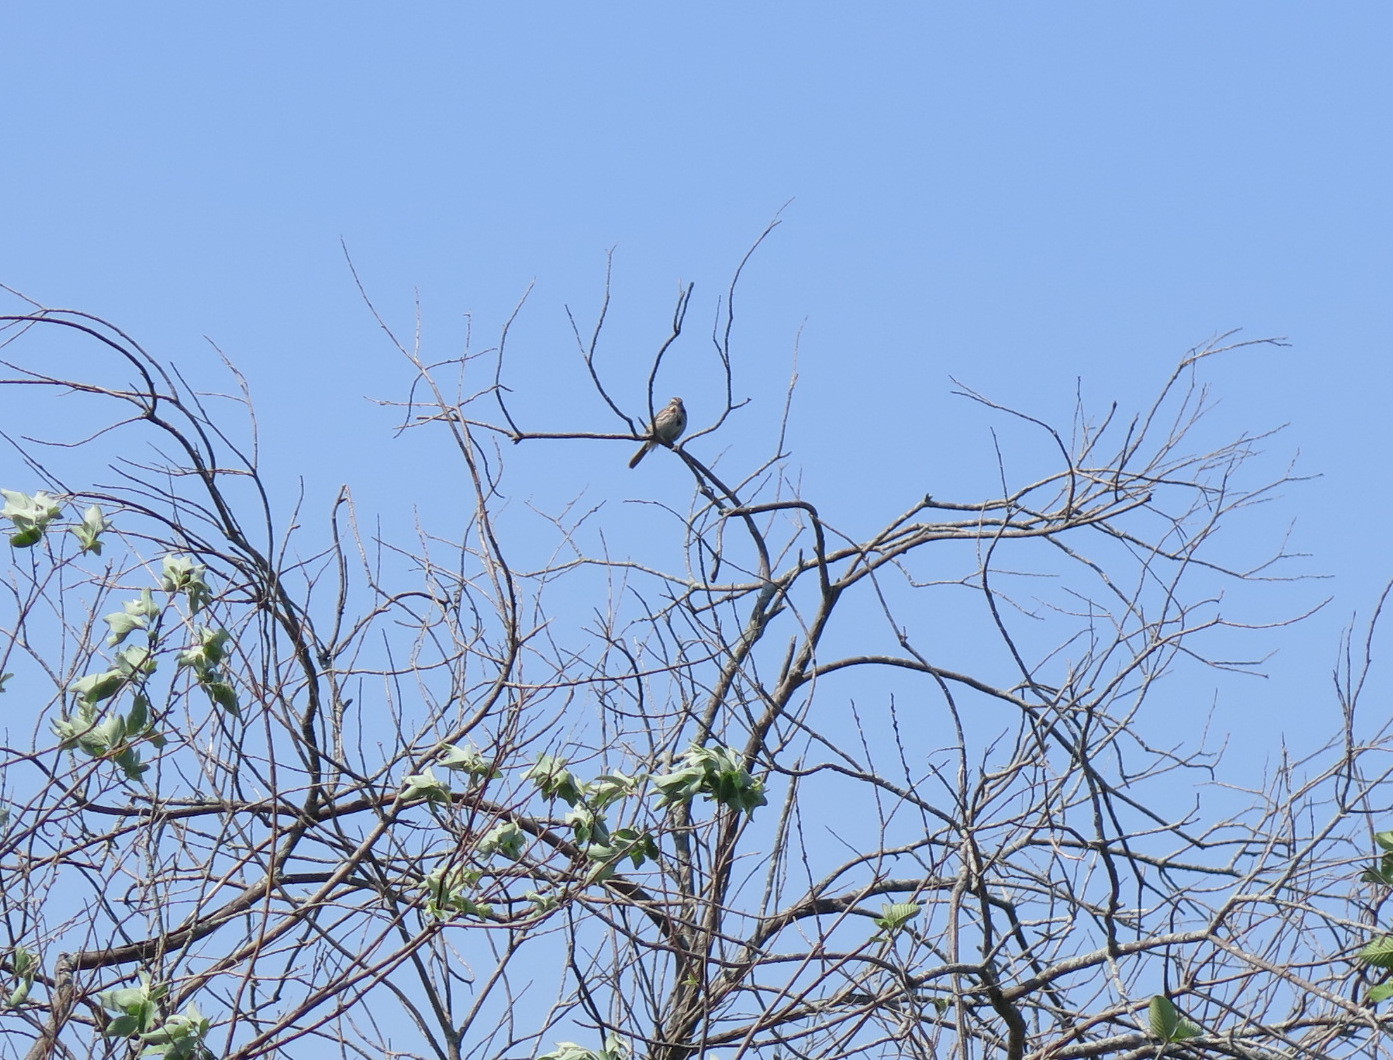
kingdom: Animalia
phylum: Chordata
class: Aves
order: Passeriformes
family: Passerellidae
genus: Melospiza
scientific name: Melospiza melodia
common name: Song sparrow
